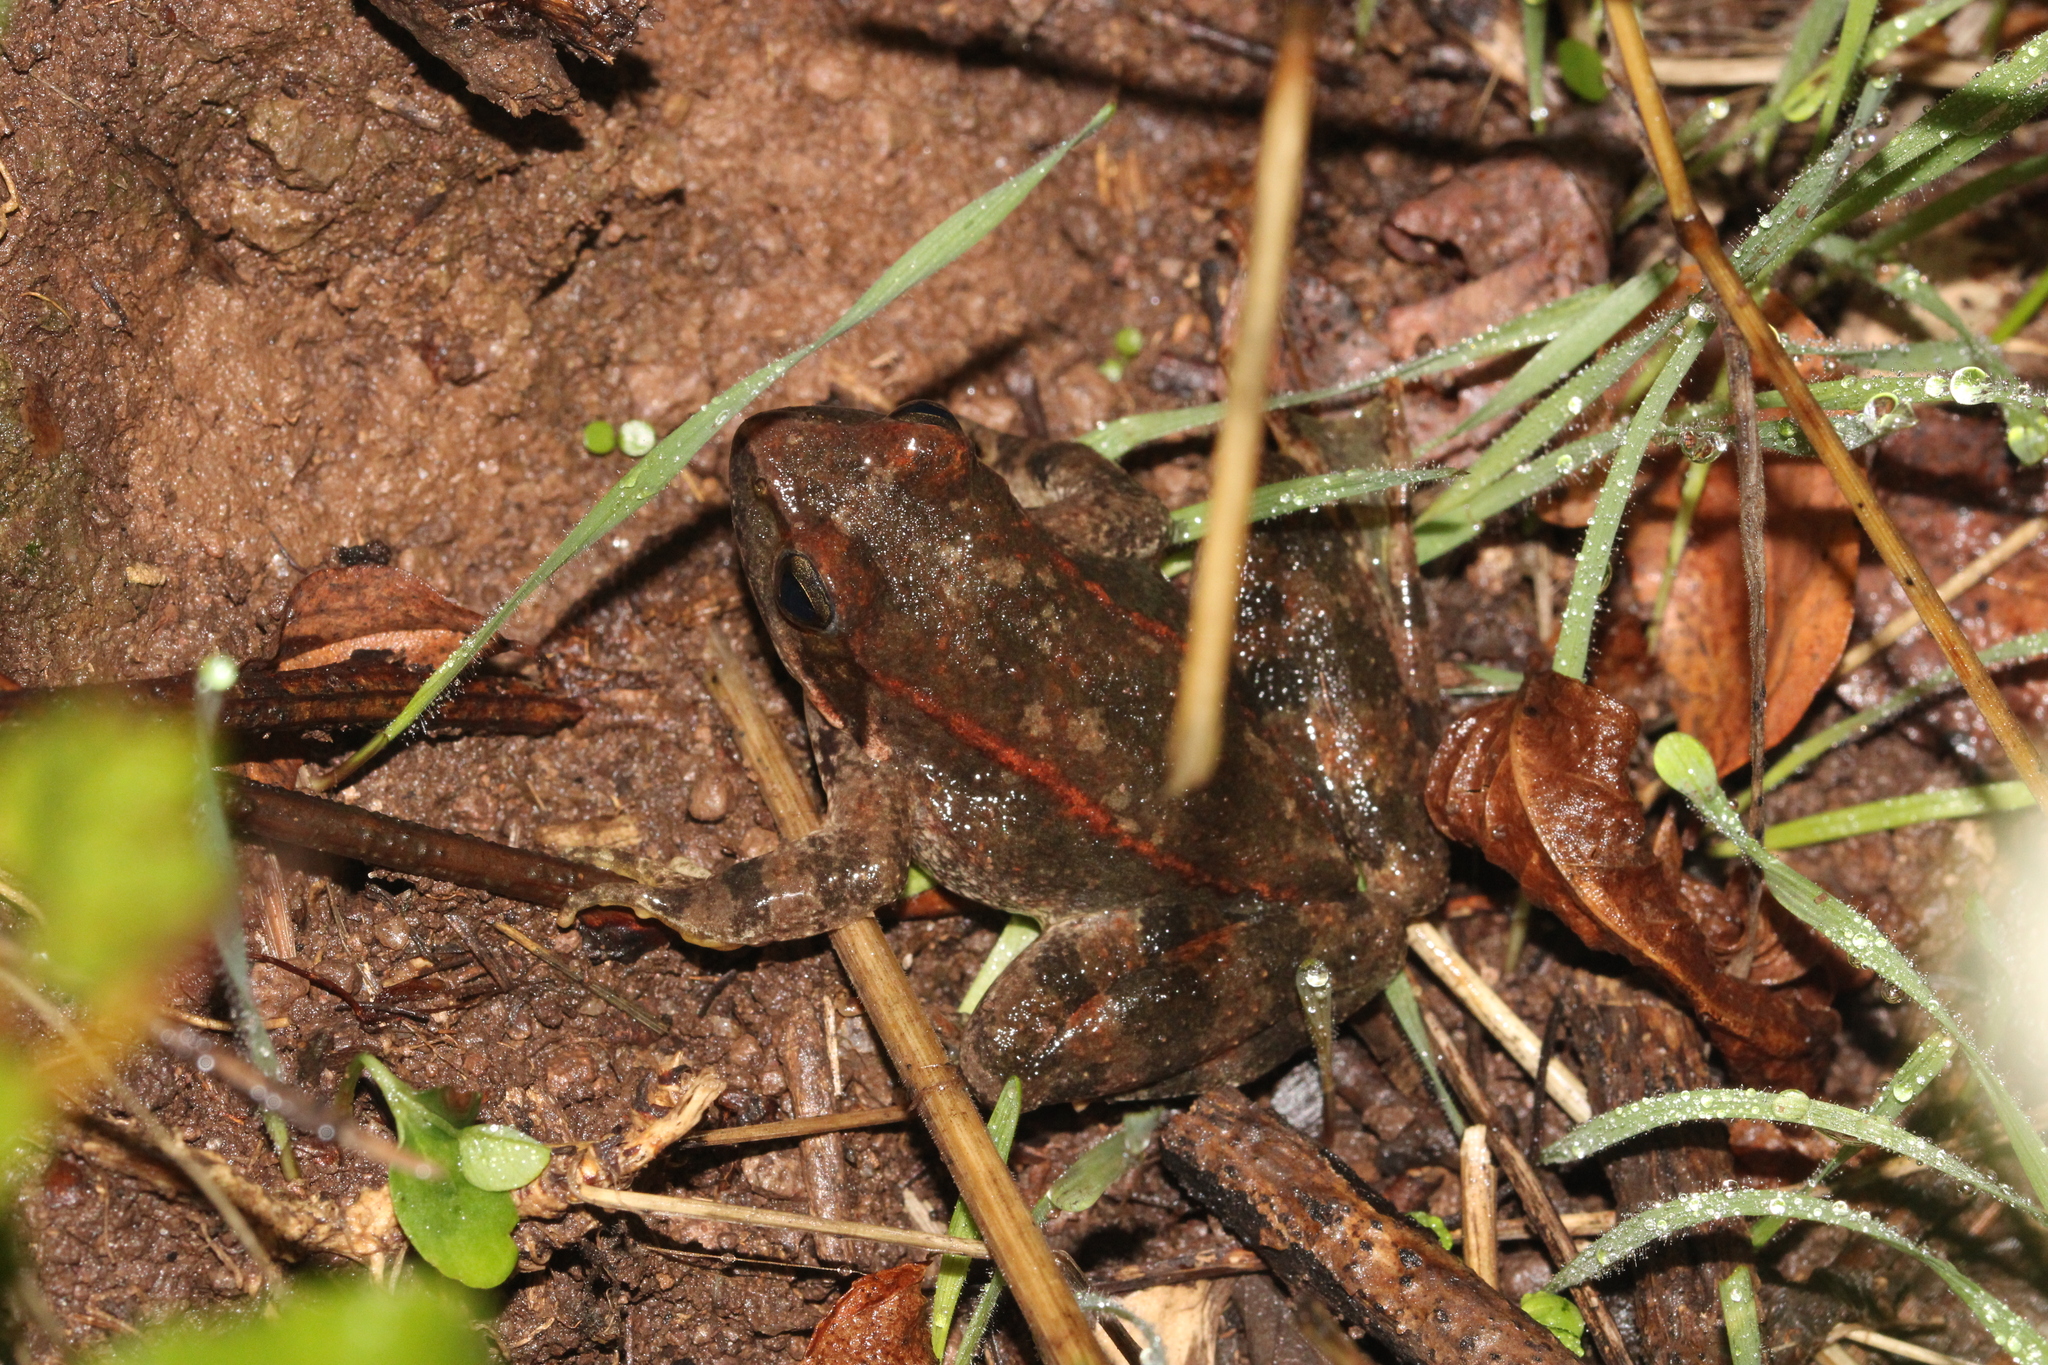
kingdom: Animalia
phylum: Chordata
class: Amphibia
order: Anura
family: Ranidae
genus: Rana
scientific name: Rana graeca
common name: Greek stream frog
